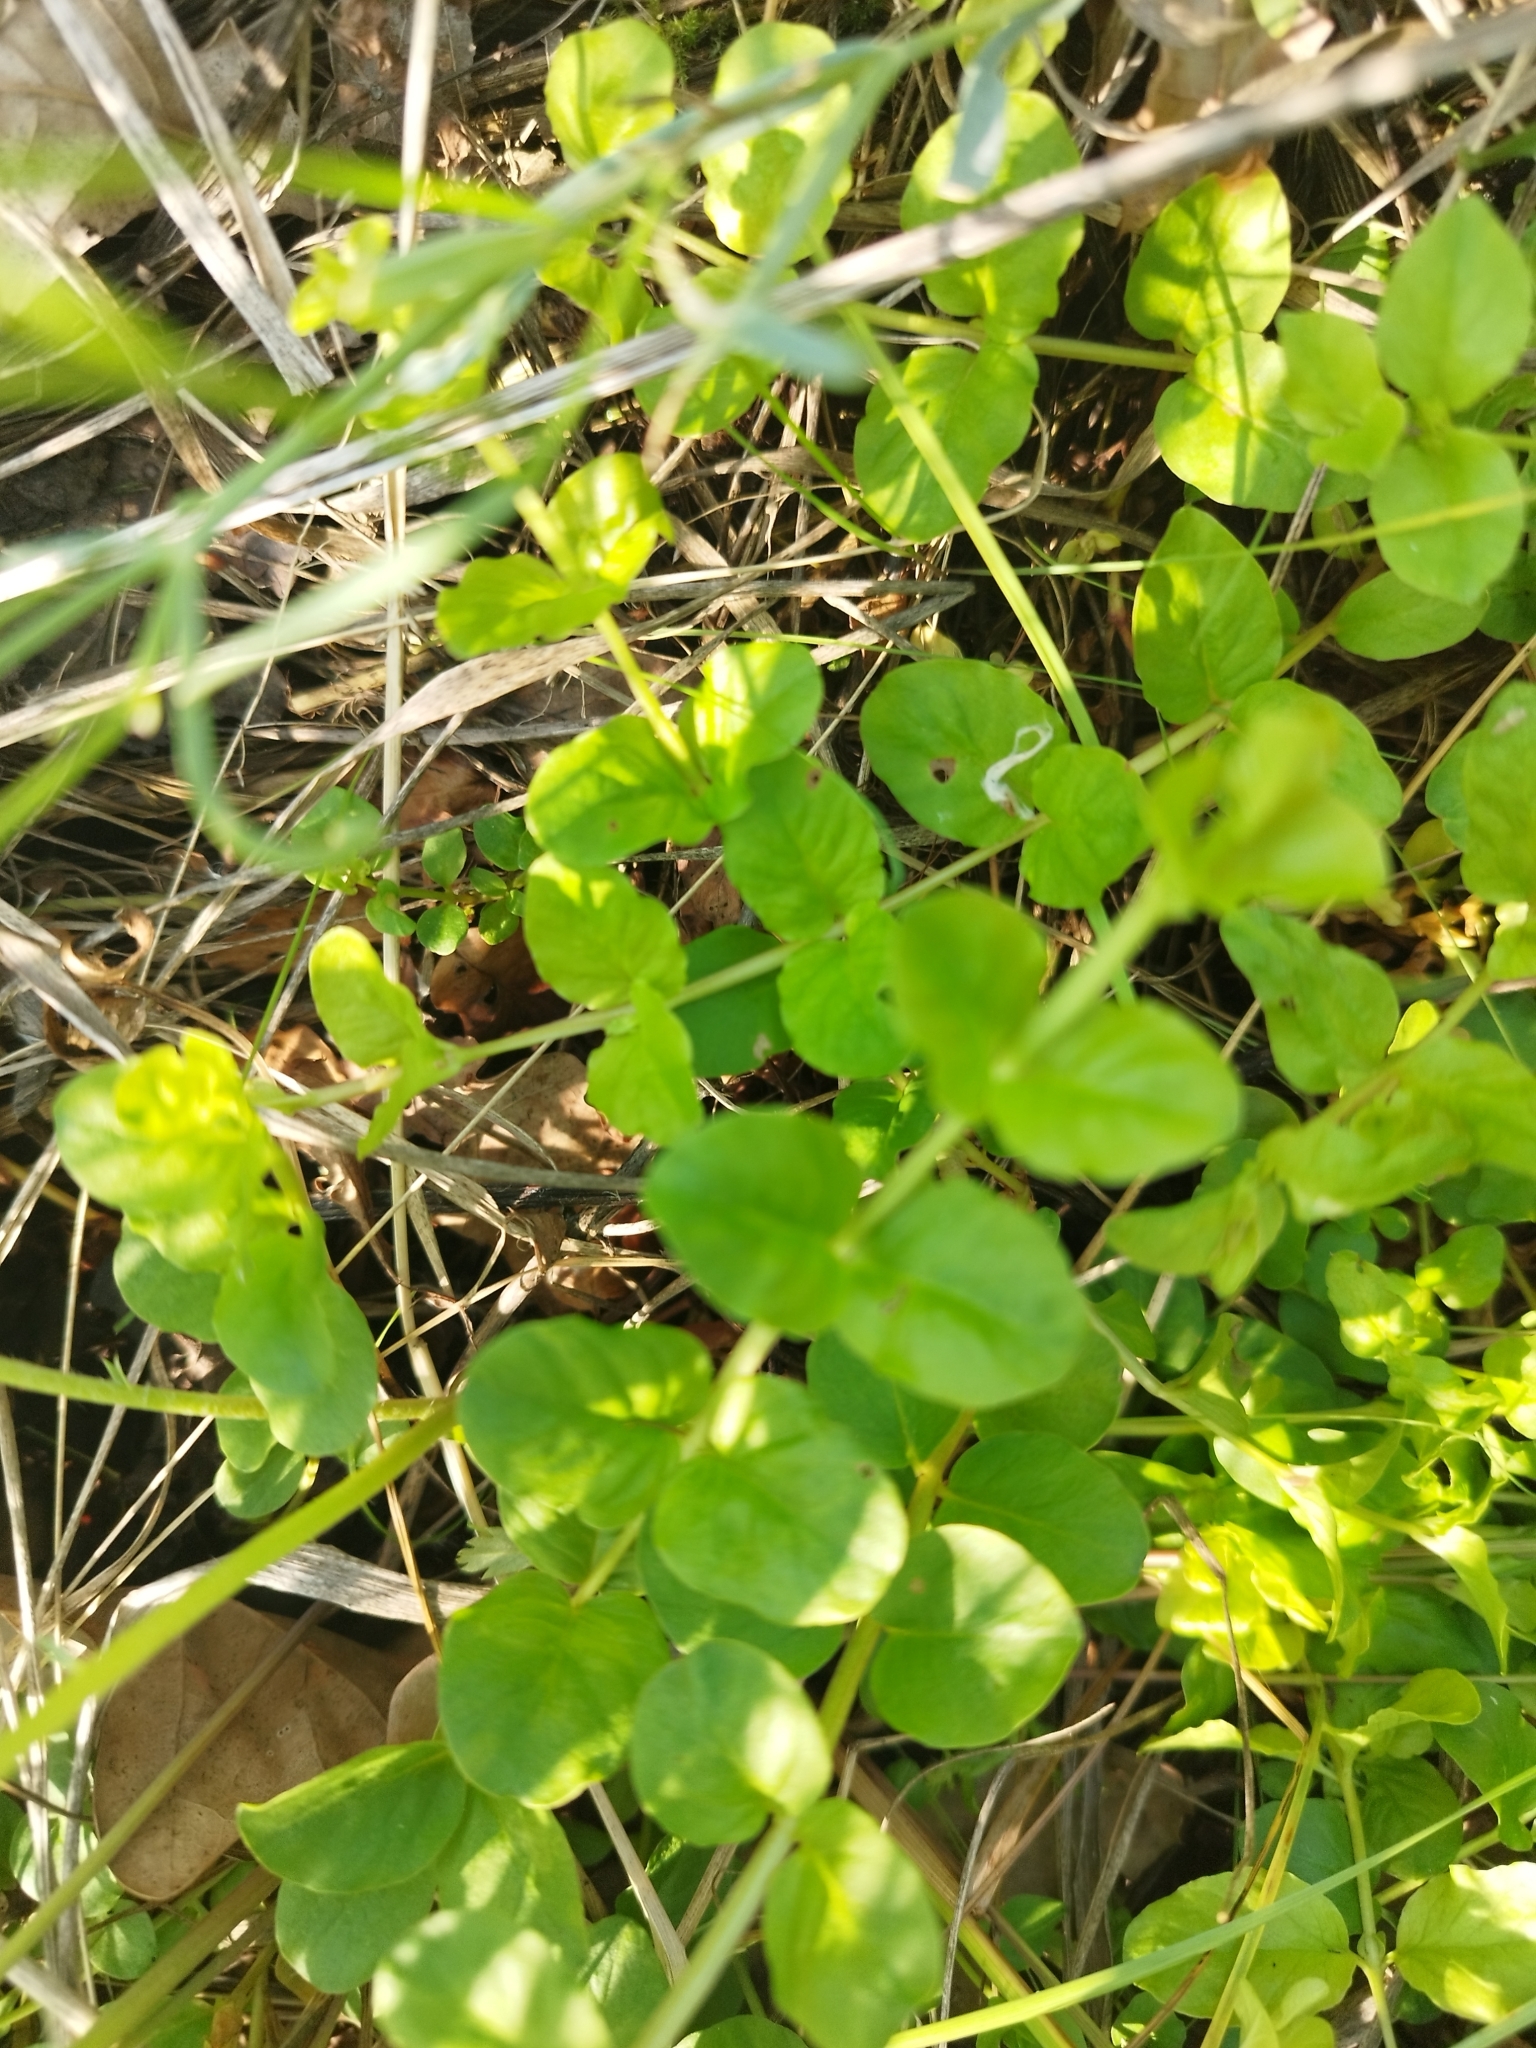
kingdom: Plantae
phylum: Tracheophyta
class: Magnoliopsida
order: Ericales
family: Primulaceae
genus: Lysimachia
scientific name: Lysimachia nummularia
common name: Moneywort
